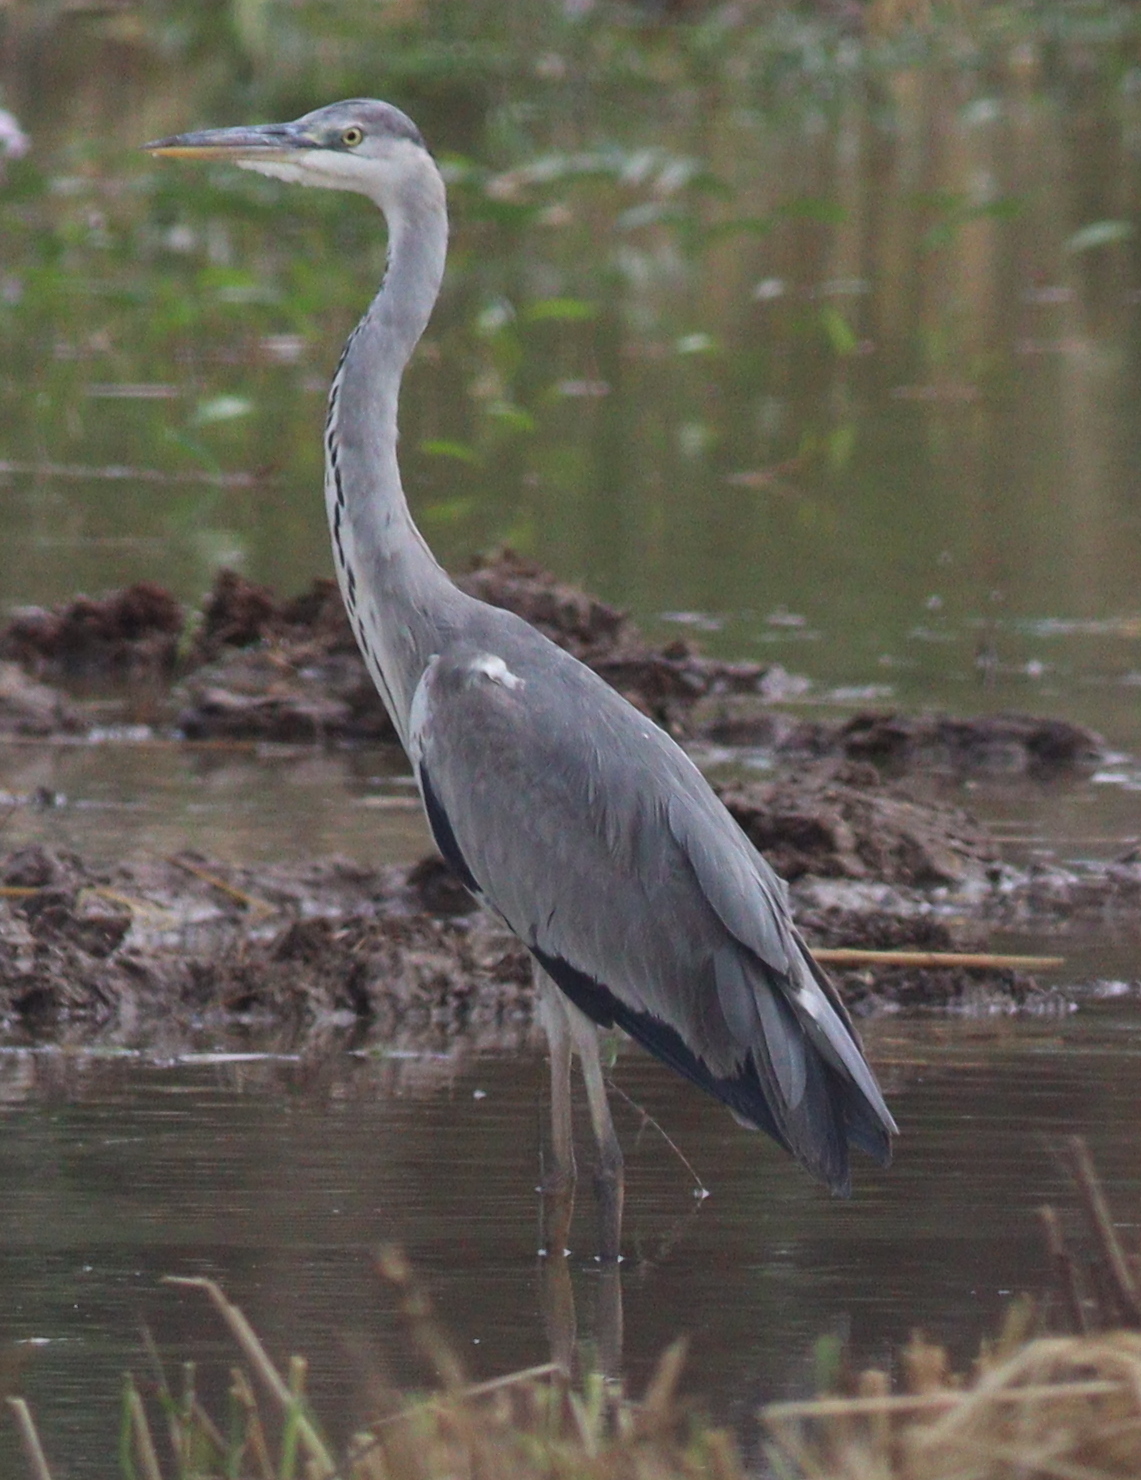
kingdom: Animalia
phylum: Chordata
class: Aves
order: Pelecaniformes
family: Ardeidae
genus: Ardea
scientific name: Ardea cinerea
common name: Grey heron
